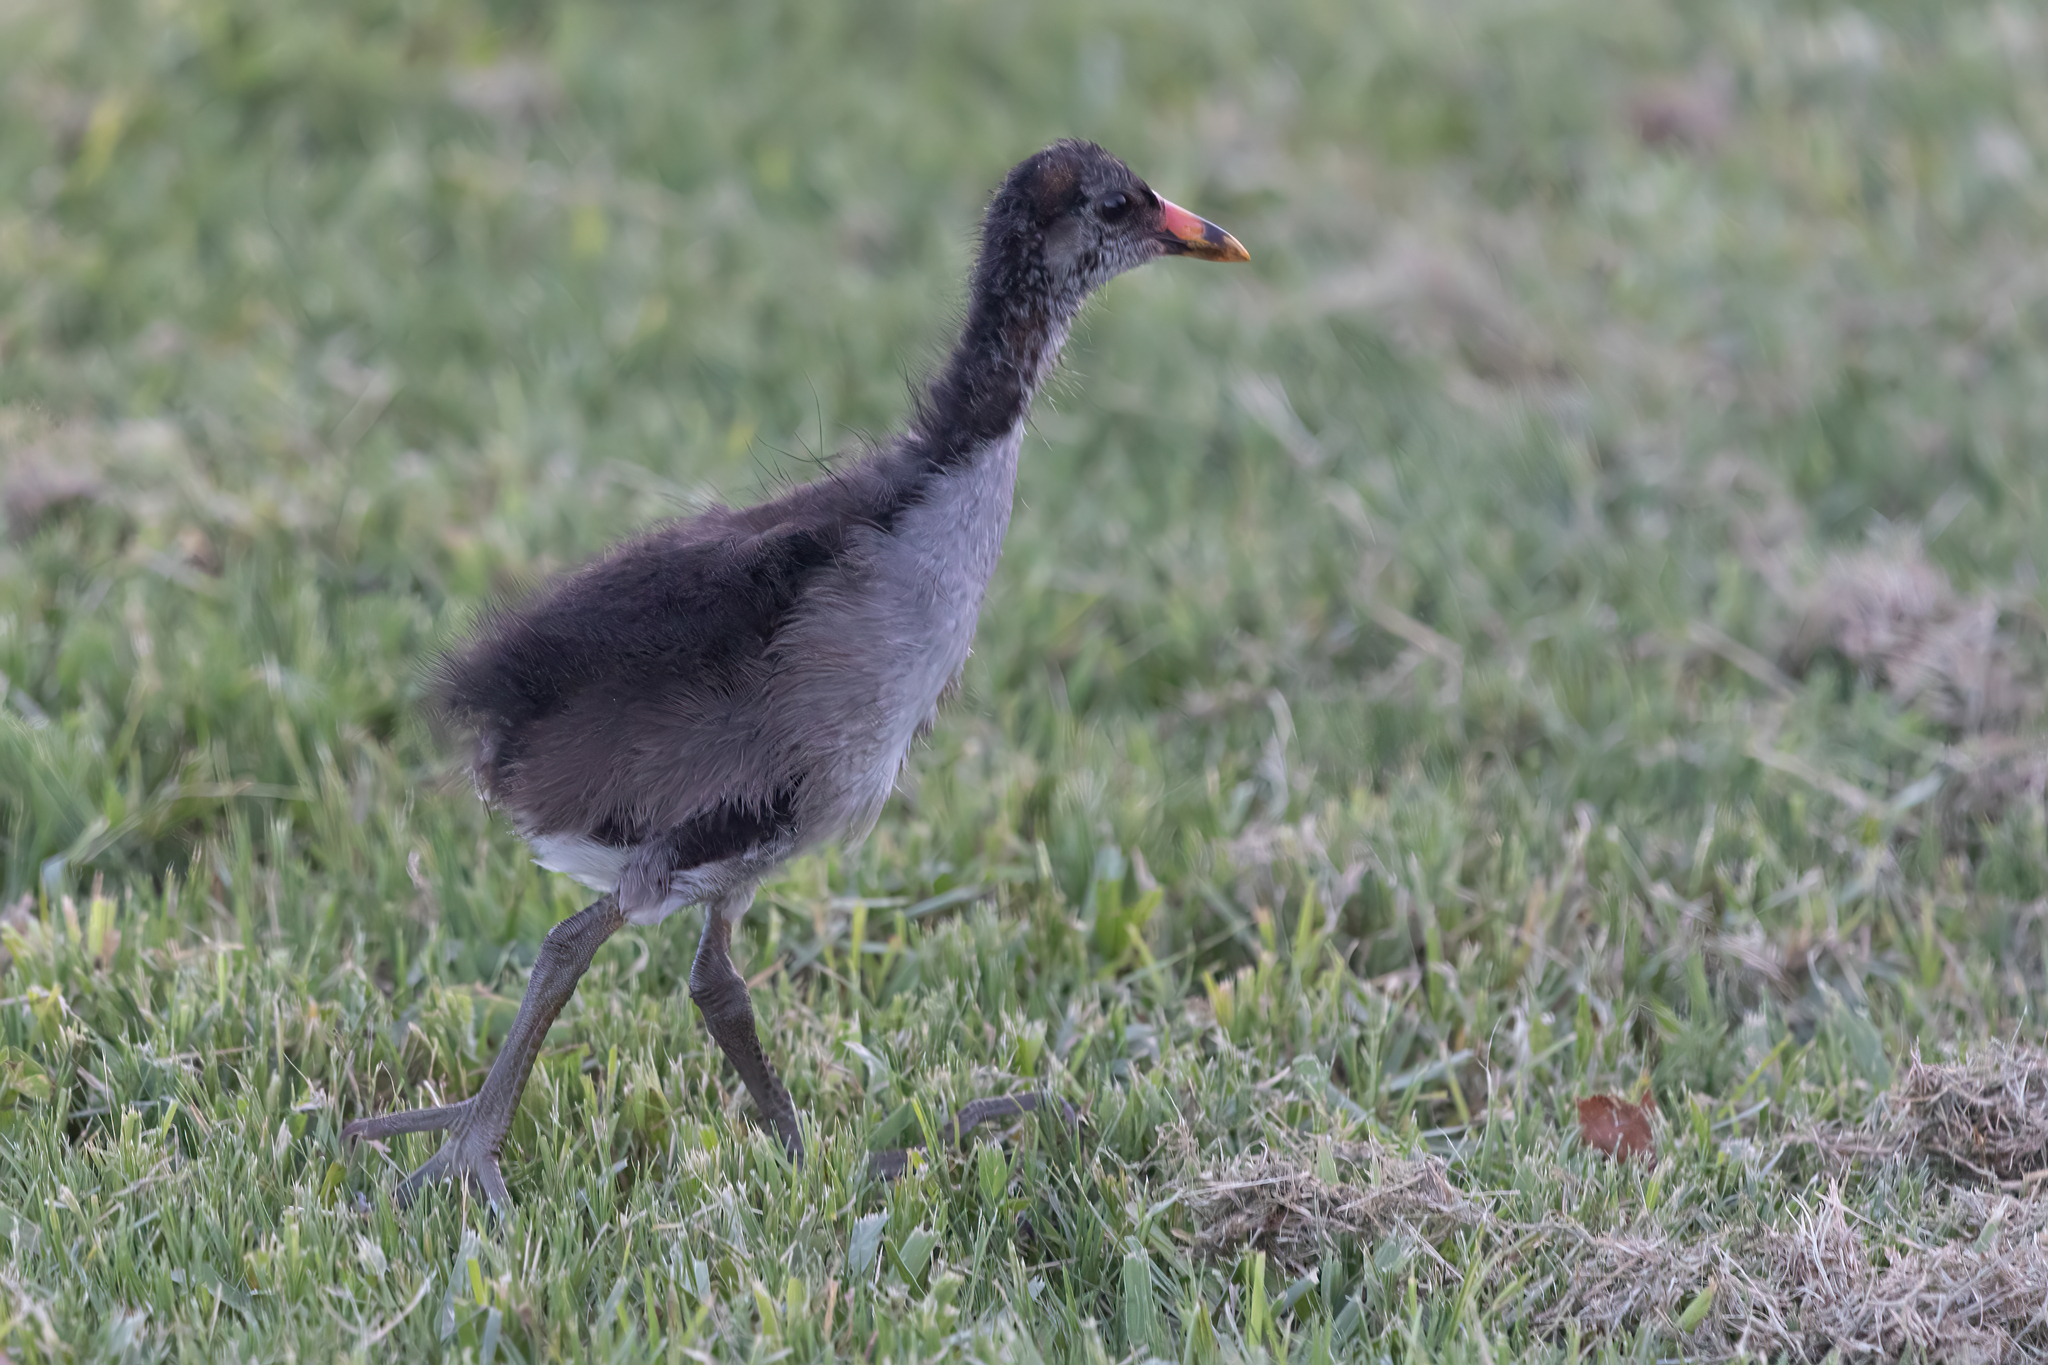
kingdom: Animalia
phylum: Chordata
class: Aves
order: Gruiformes
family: Rallidae
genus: Gallinula
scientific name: Gallinula chloropus
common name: Common moorhen
